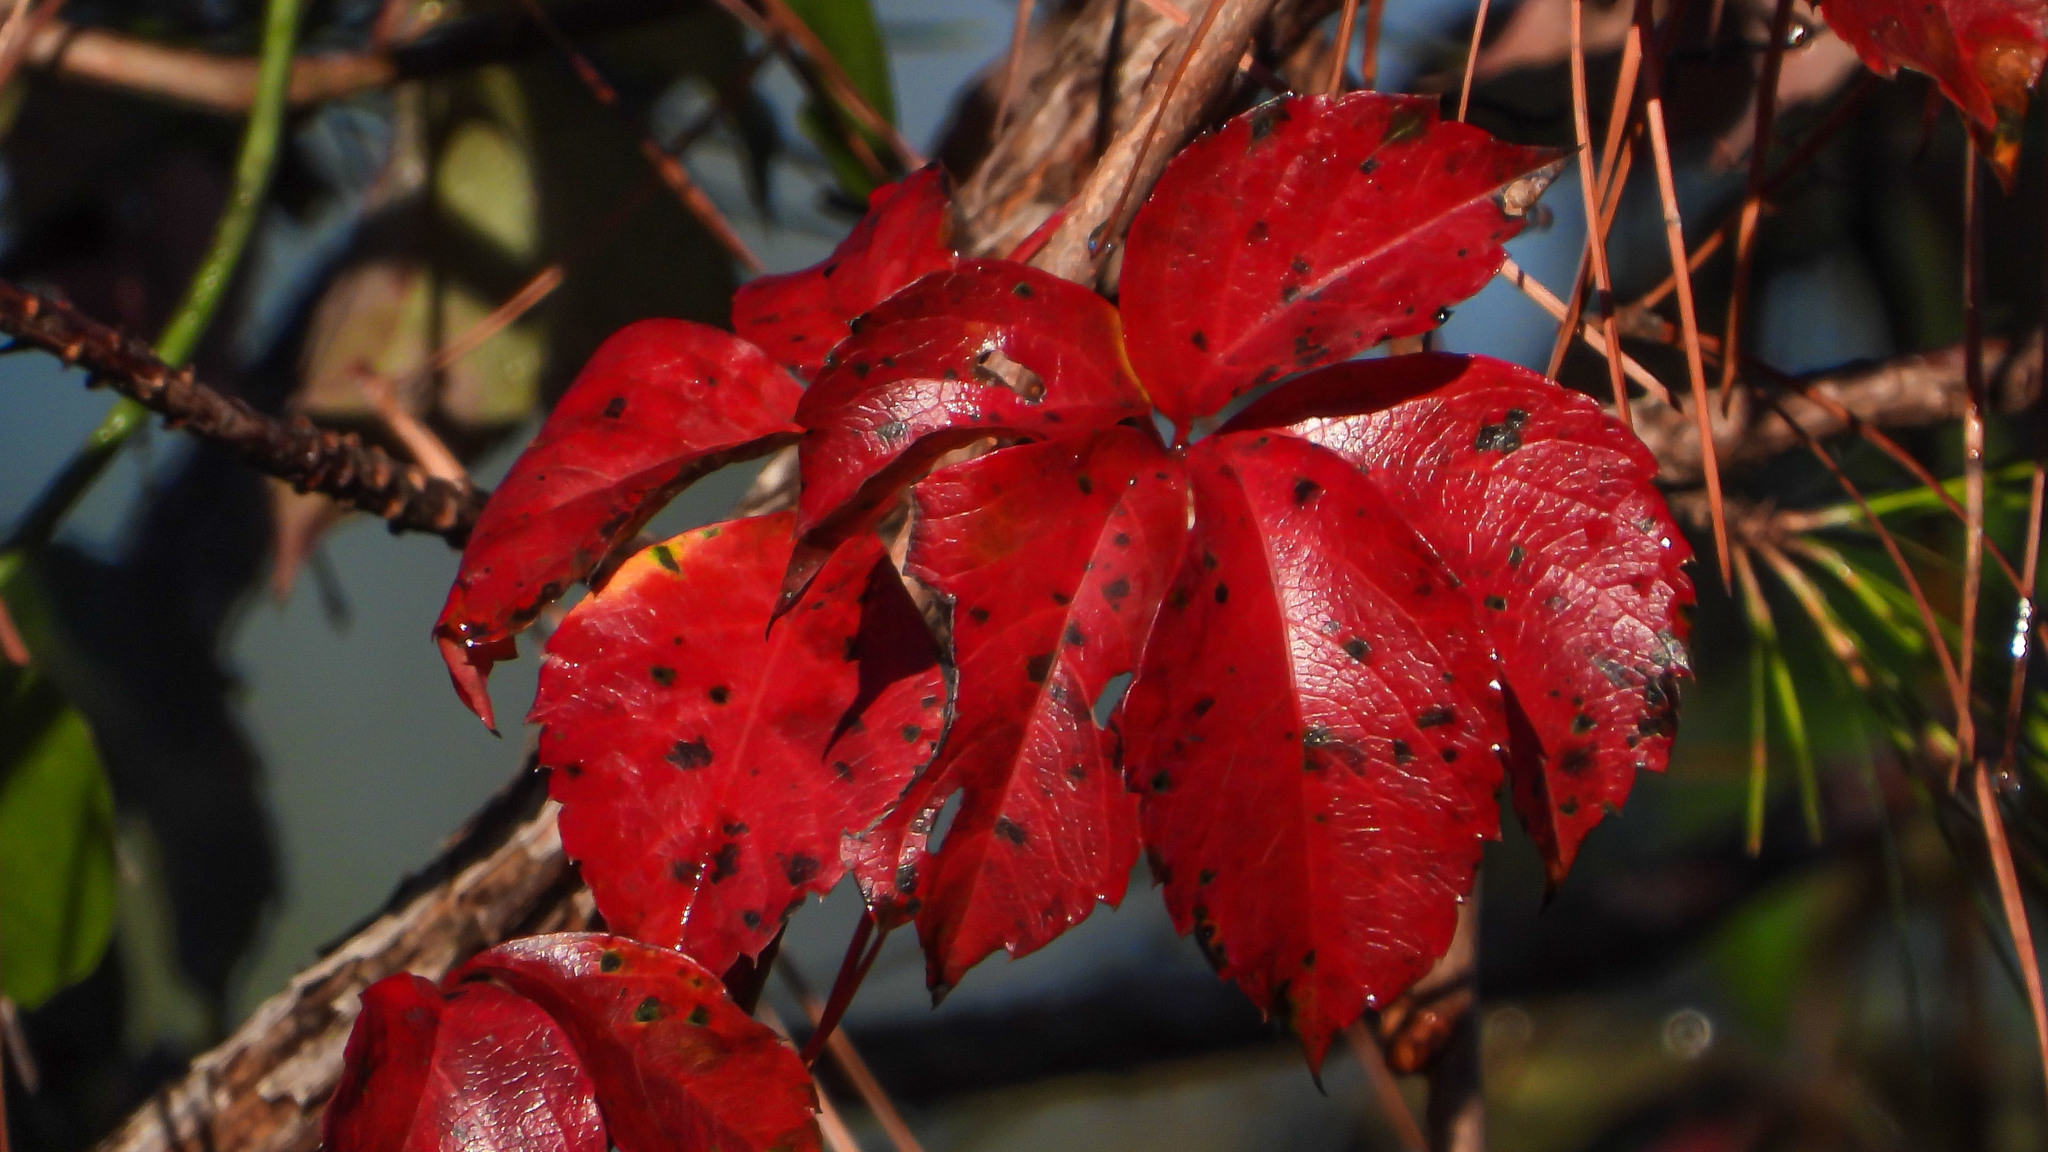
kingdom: Plantae
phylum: Tracheophyta
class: Magnoliopsida
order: Vitales
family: Vitaceae
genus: Parthenocissus
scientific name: Parthenocissus quinquefolia
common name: Virginia-creeper
